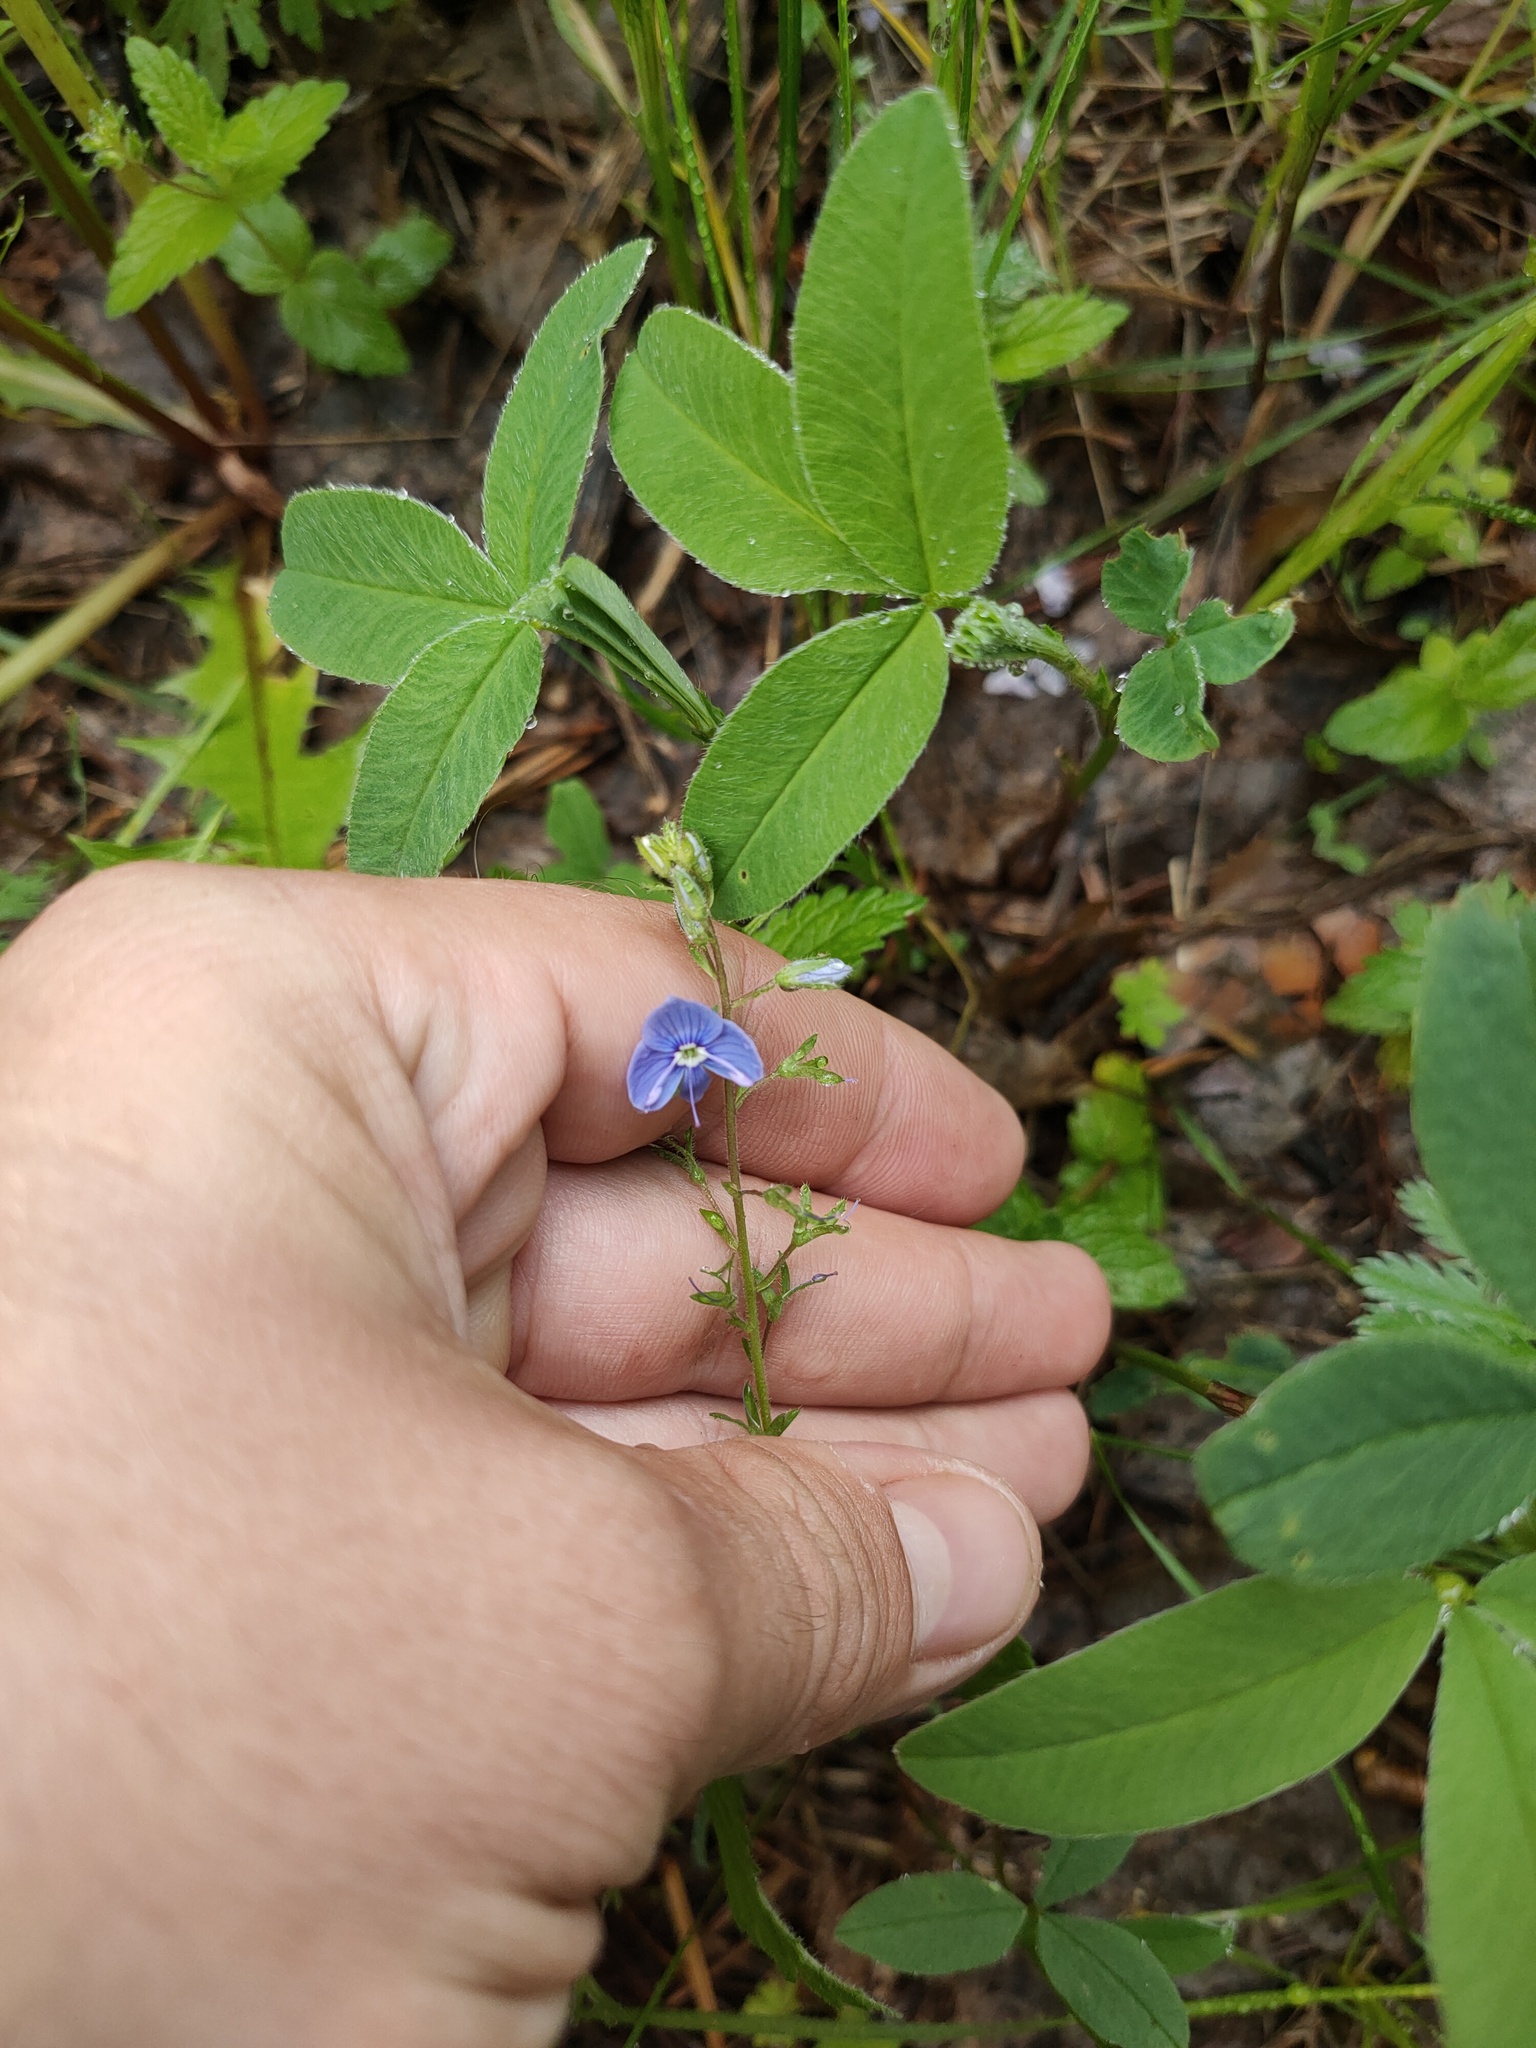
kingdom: Plantae
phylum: Tracheophyta
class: Magnoliopsida
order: Lamiales
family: Plantaginaceae
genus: Veronica
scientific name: Veronica chamaedrys
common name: Germander speedwell
